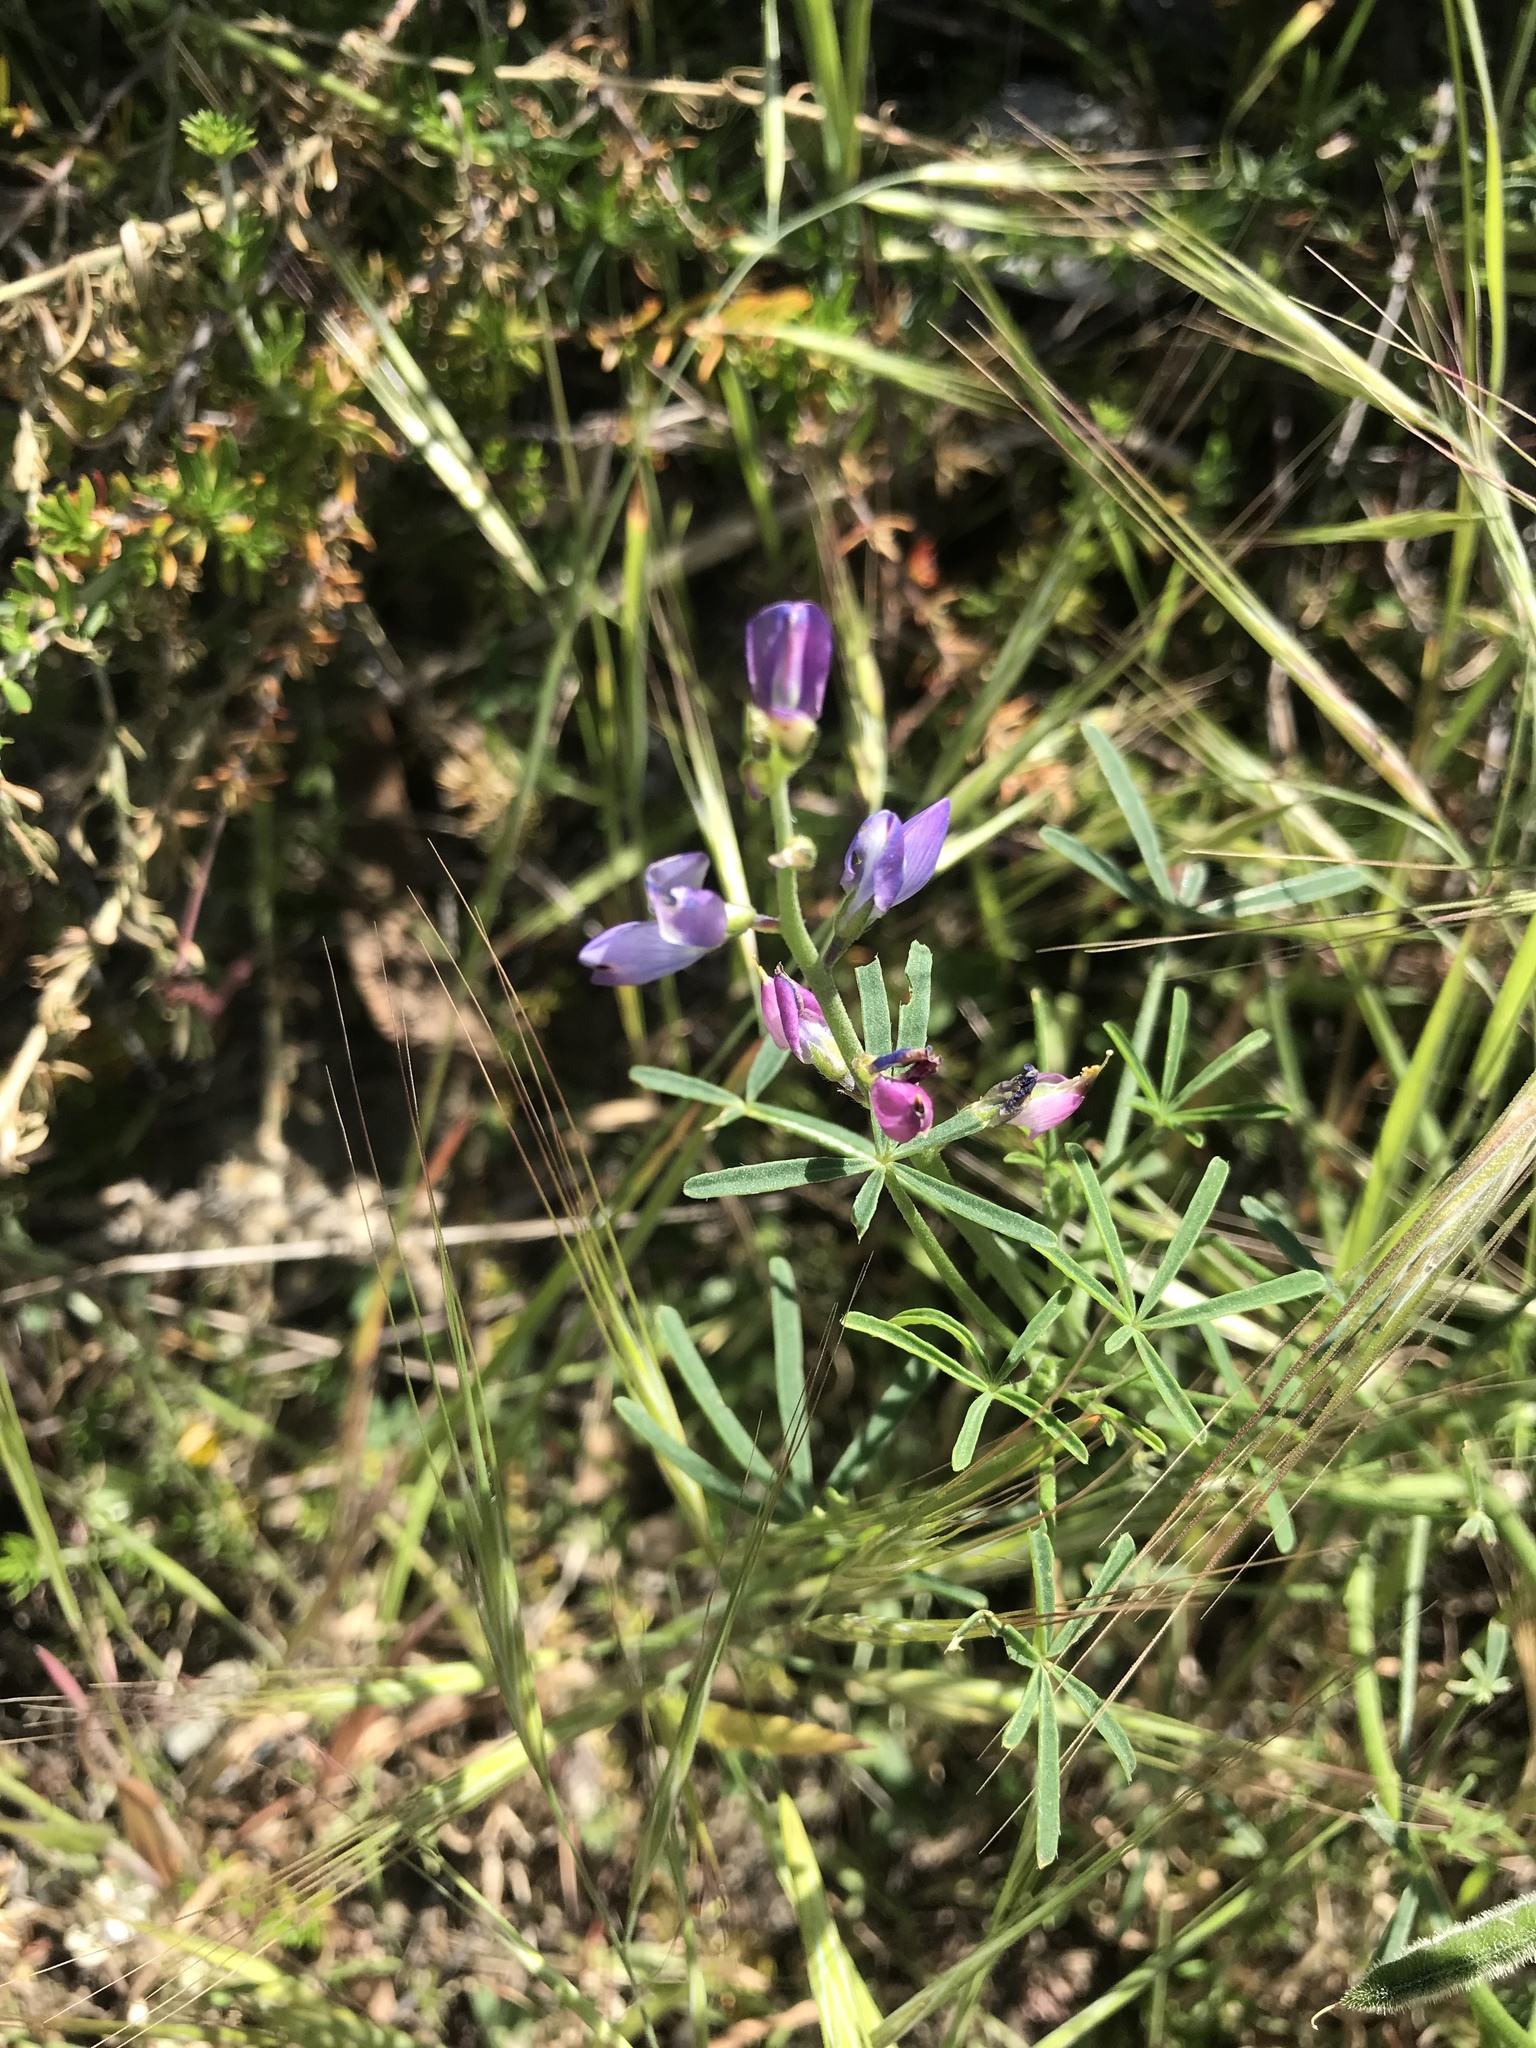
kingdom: Plantae
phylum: Tracheophyta
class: Magnoliopsida
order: Fabales
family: Fabaceae
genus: Lupinus
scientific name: Lupinus truncatus
